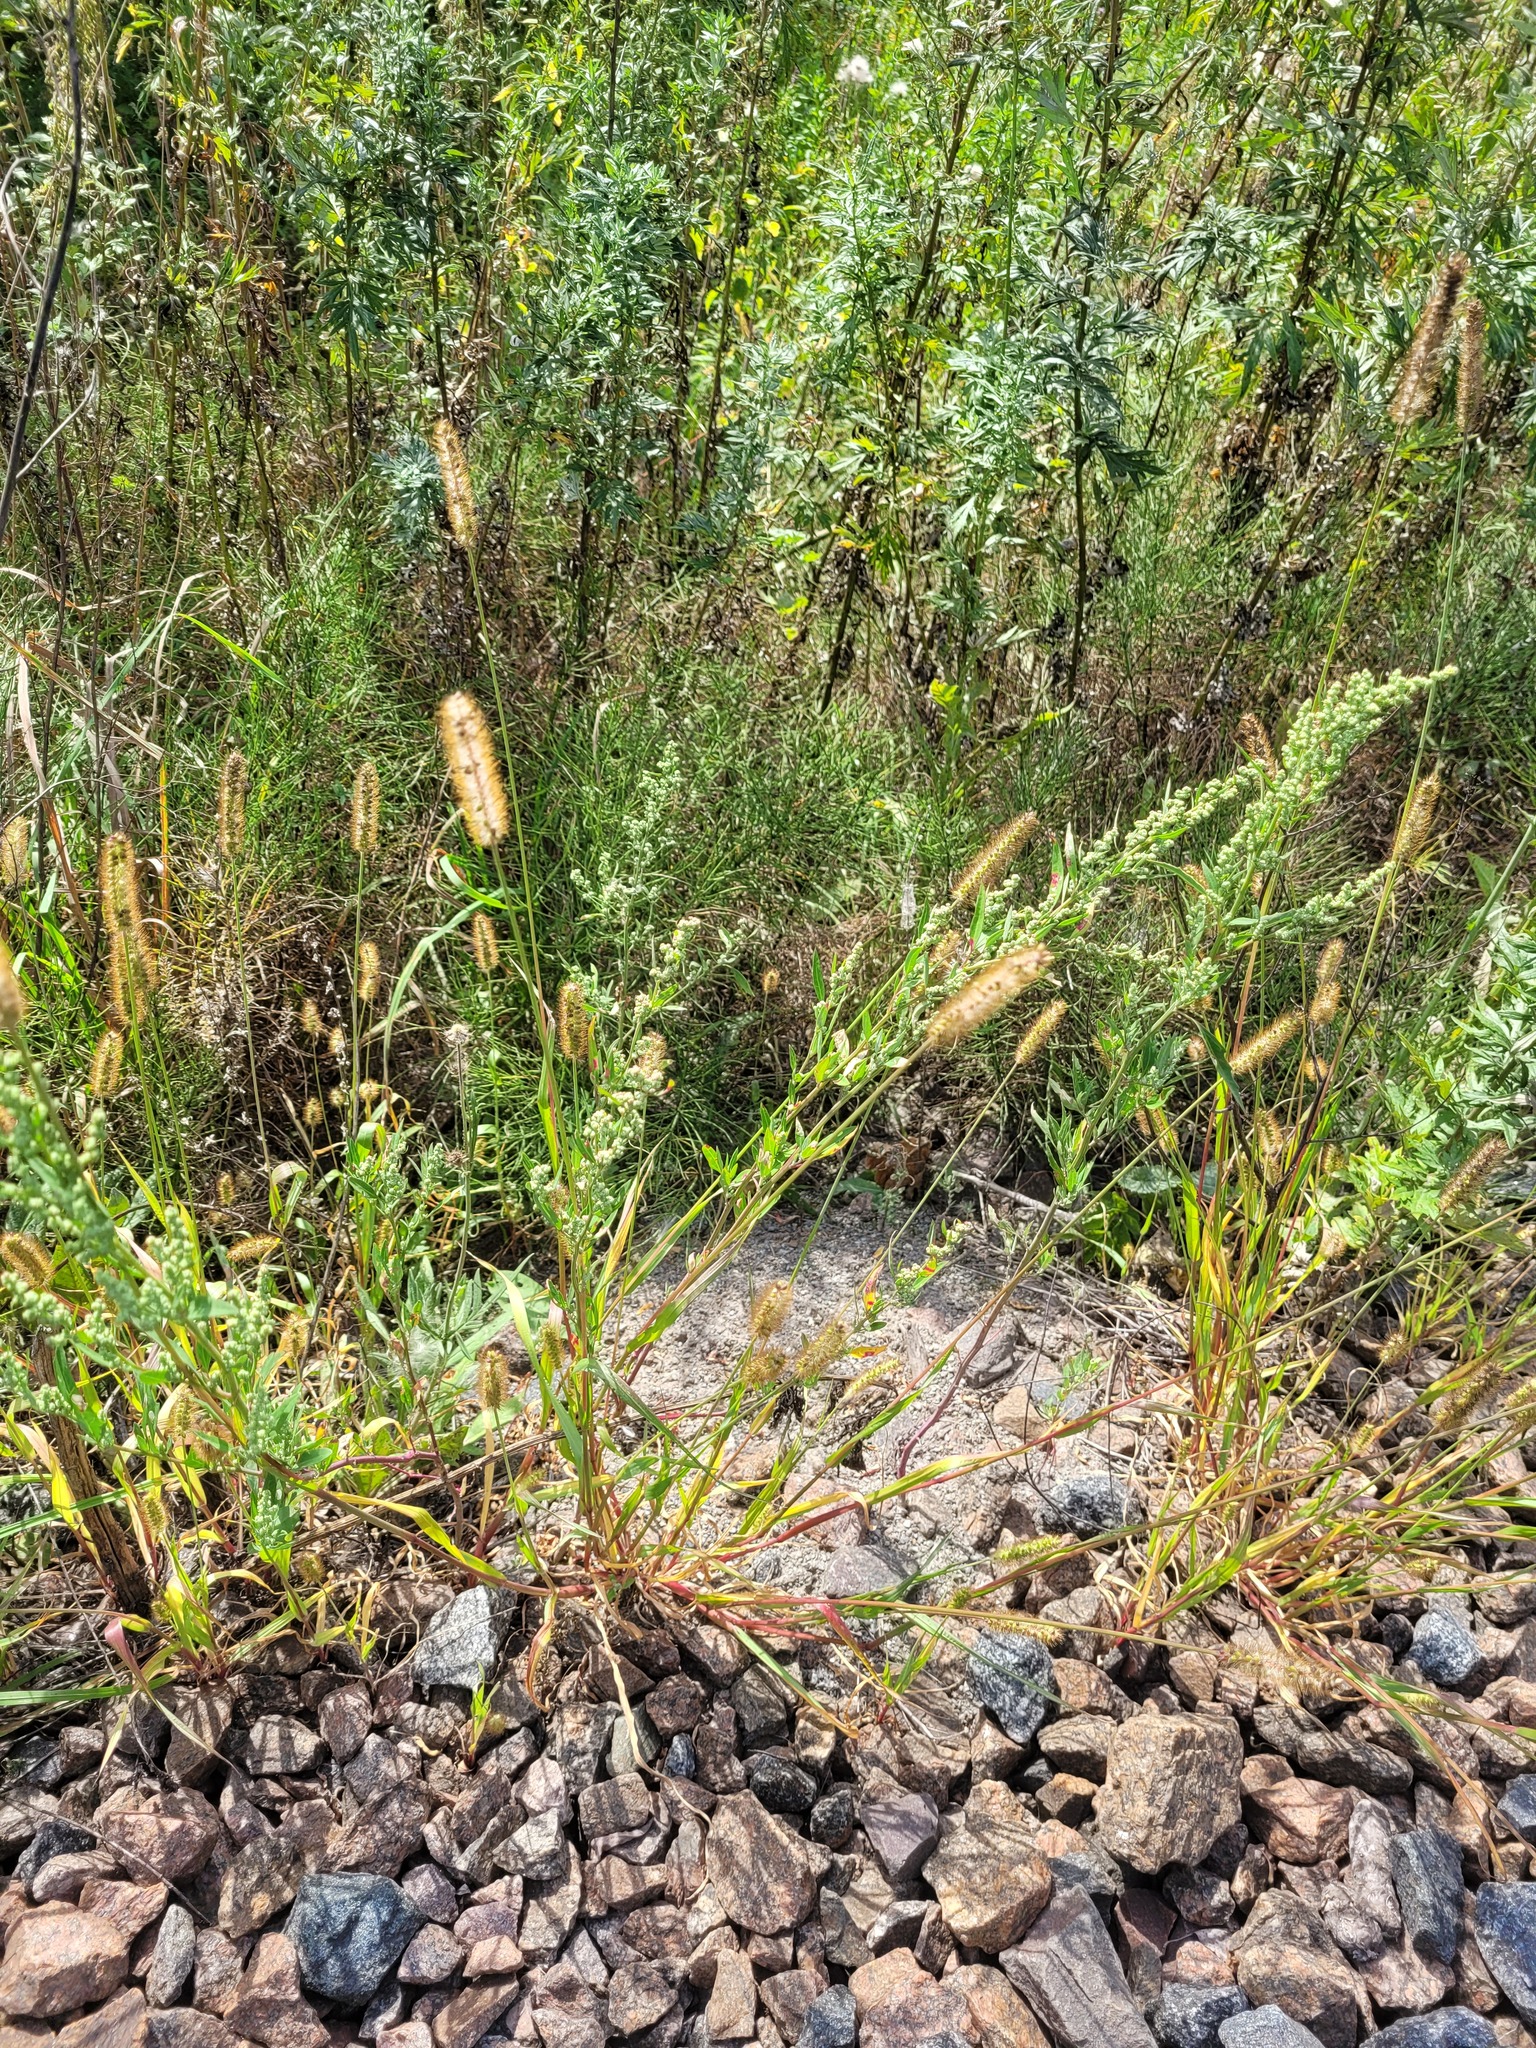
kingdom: Plantae
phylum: Tracheophyta
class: Liliopsida
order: Poales
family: Poaceae
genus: Setaria
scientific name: Setaria pumila
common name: Yellow bristle-grass
